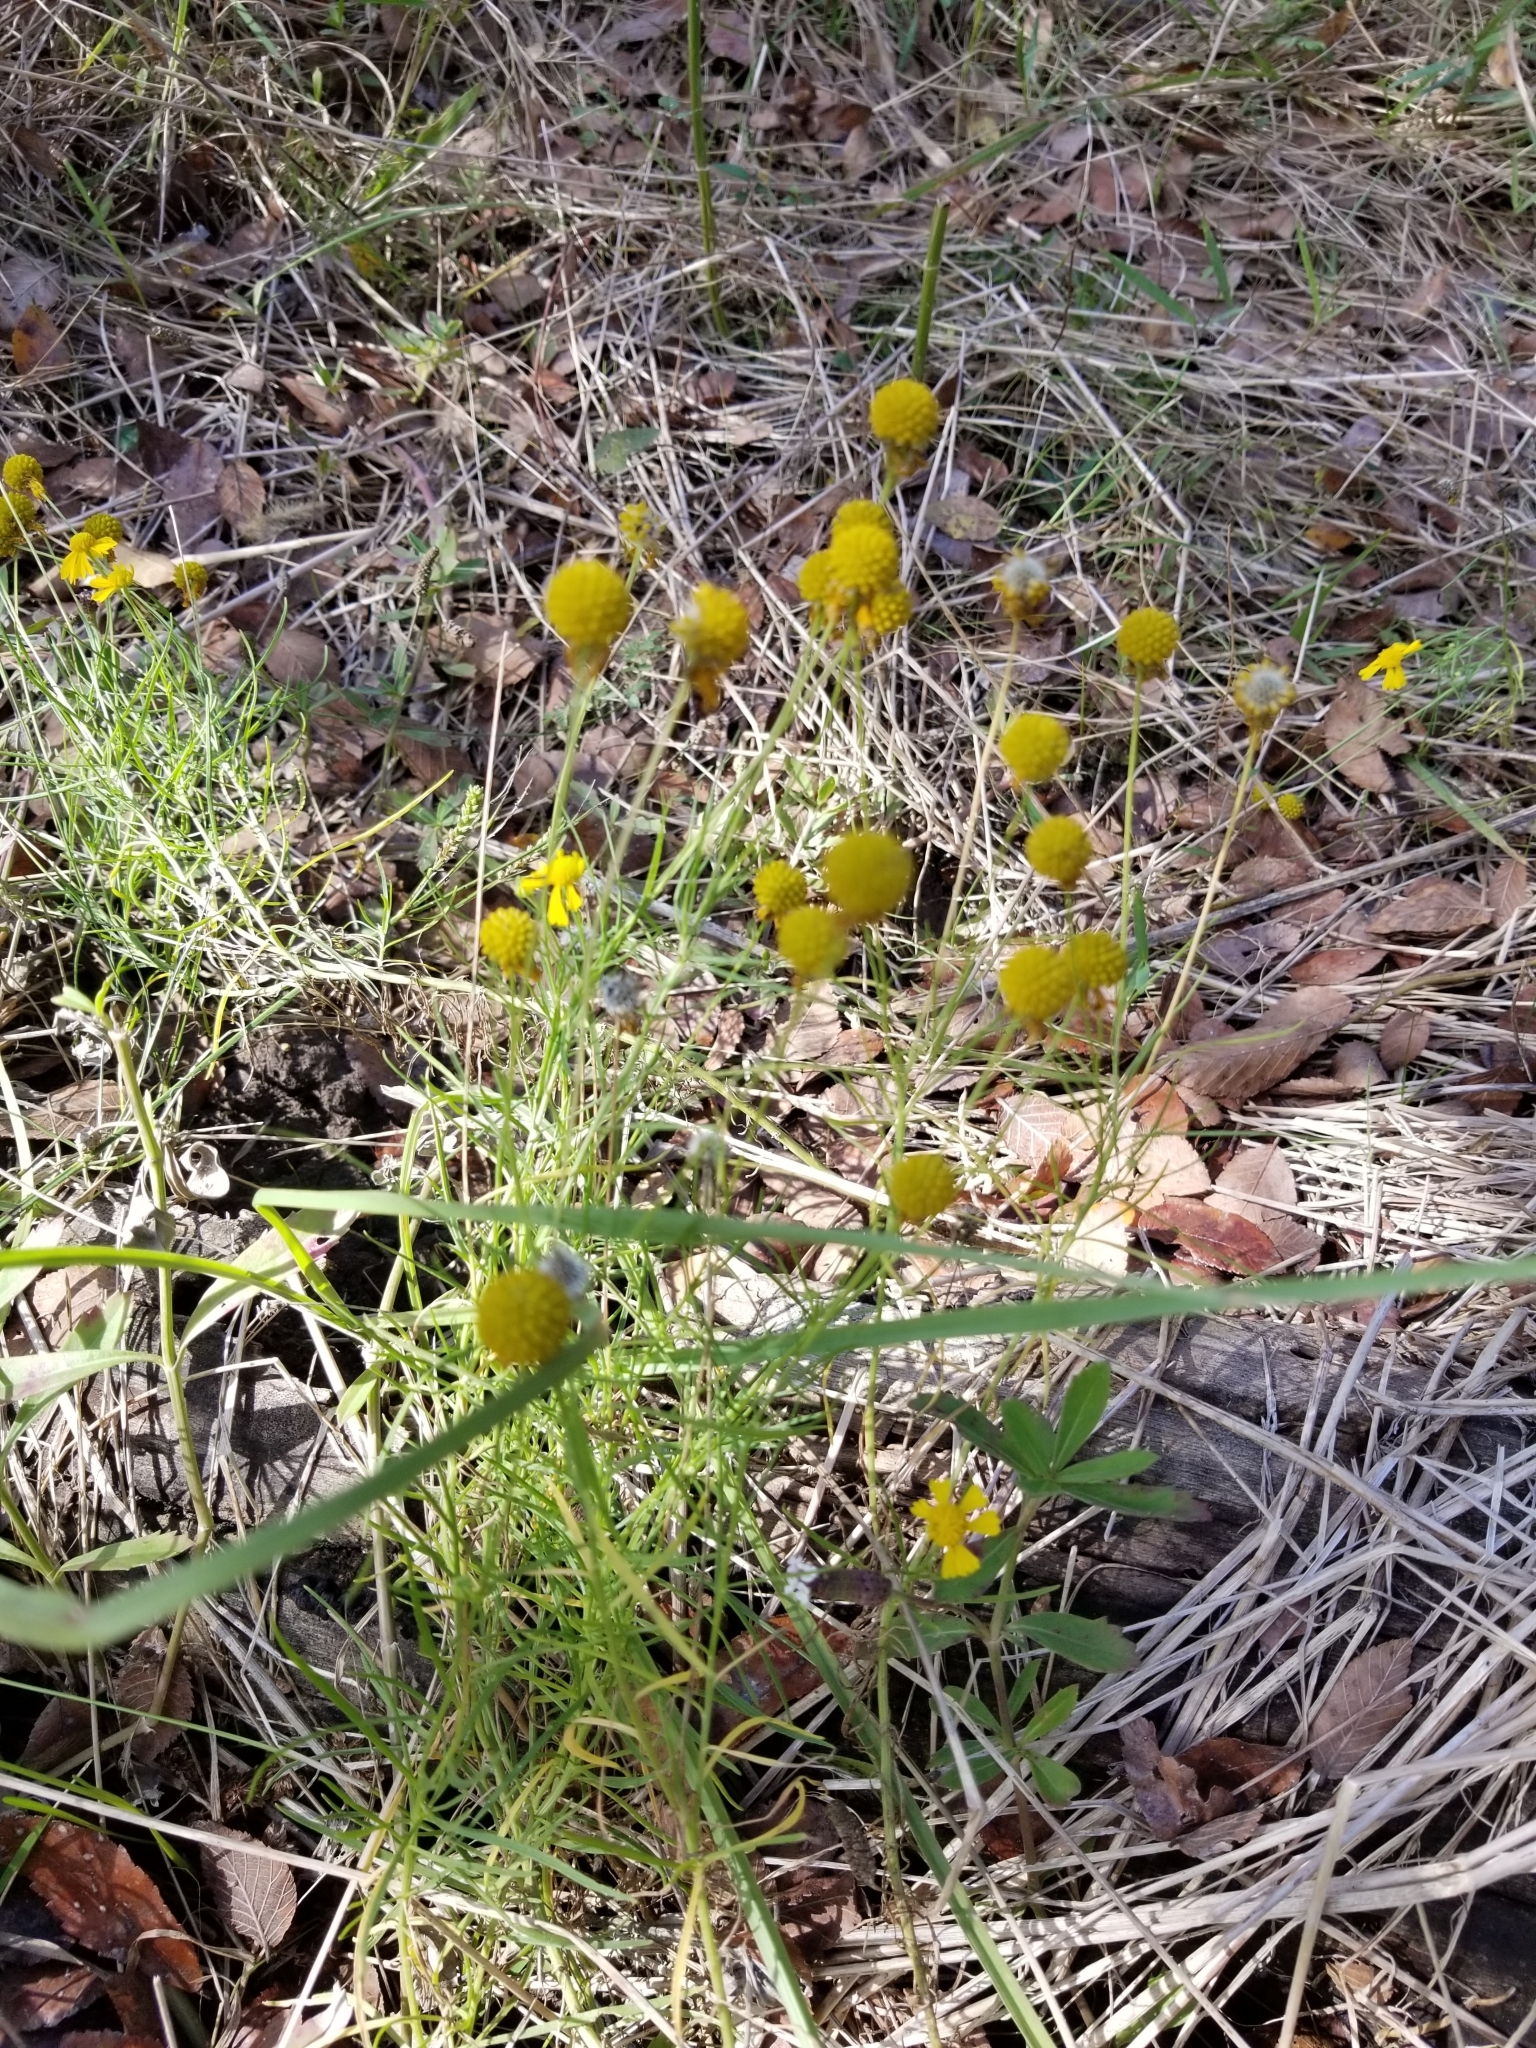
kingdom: Plantae
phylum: Tracheophyta
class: Magnoliopsida
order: Asterales
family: Asteraceae
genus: Helenium
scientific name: Helenium amarum
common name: Bitter sneezeweed
